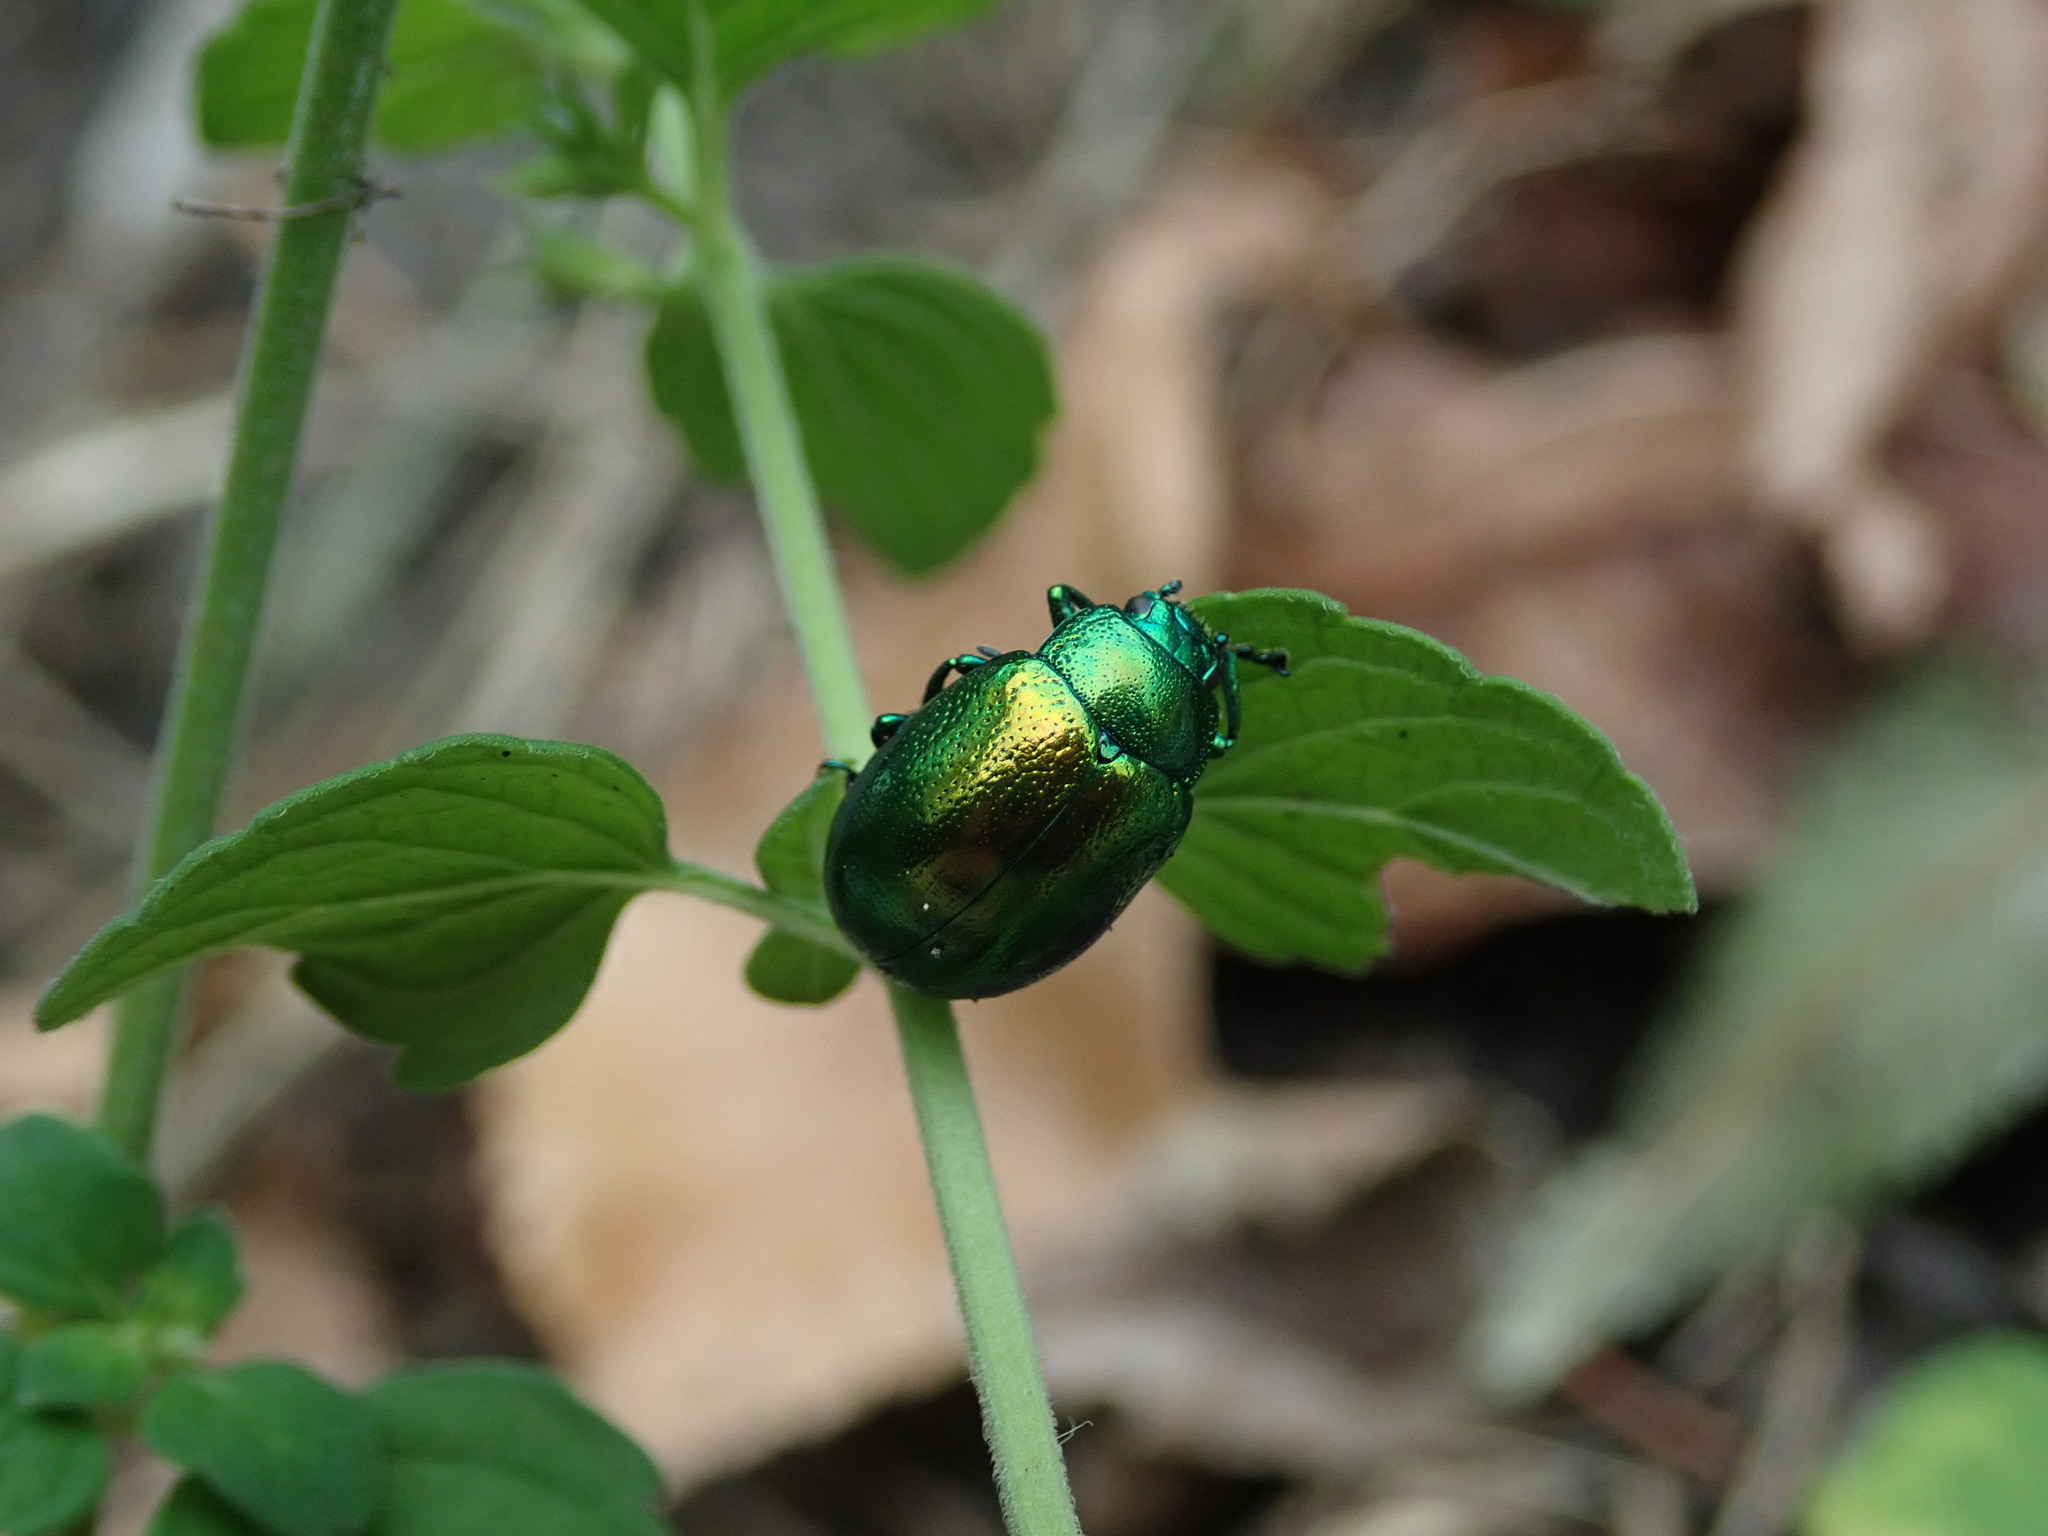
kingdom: Animalia
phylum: Arthropoda
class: Insecta
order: Coleoptera
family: Chrysomelidae
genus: Chrysolina
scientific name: Chrysolina herbacea
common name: Mint leaf beatle
